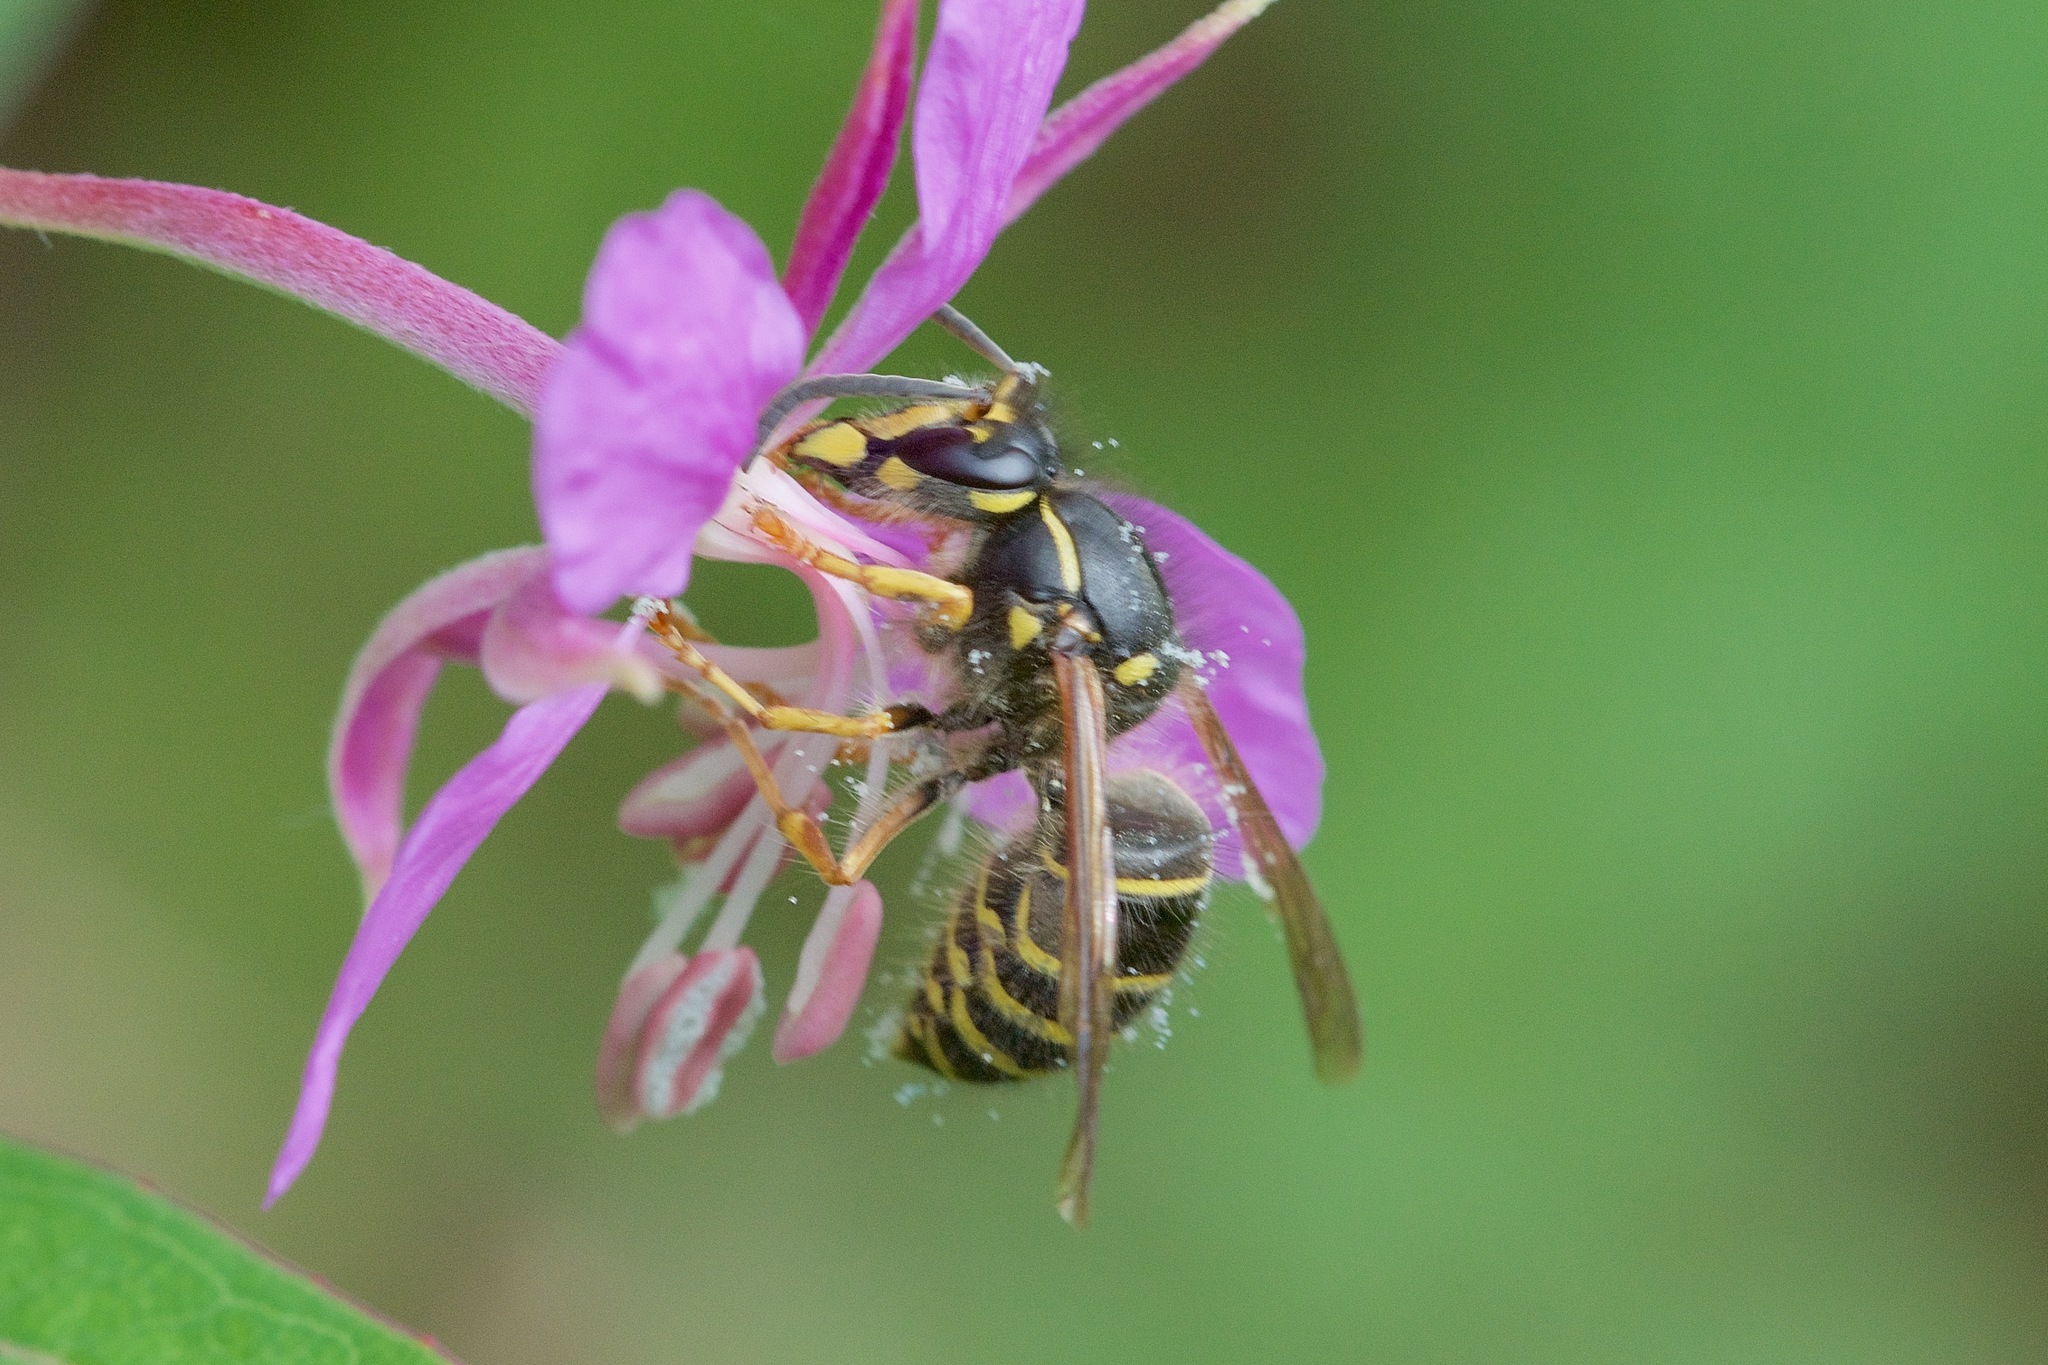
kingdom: Animalia
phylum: Arthropoda
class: Insecta
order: Hymenoptera
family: Vespidae
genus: Dolichovespula
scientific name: Dolichovespula norvegicoides
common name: Northern aerial yellowjacket
